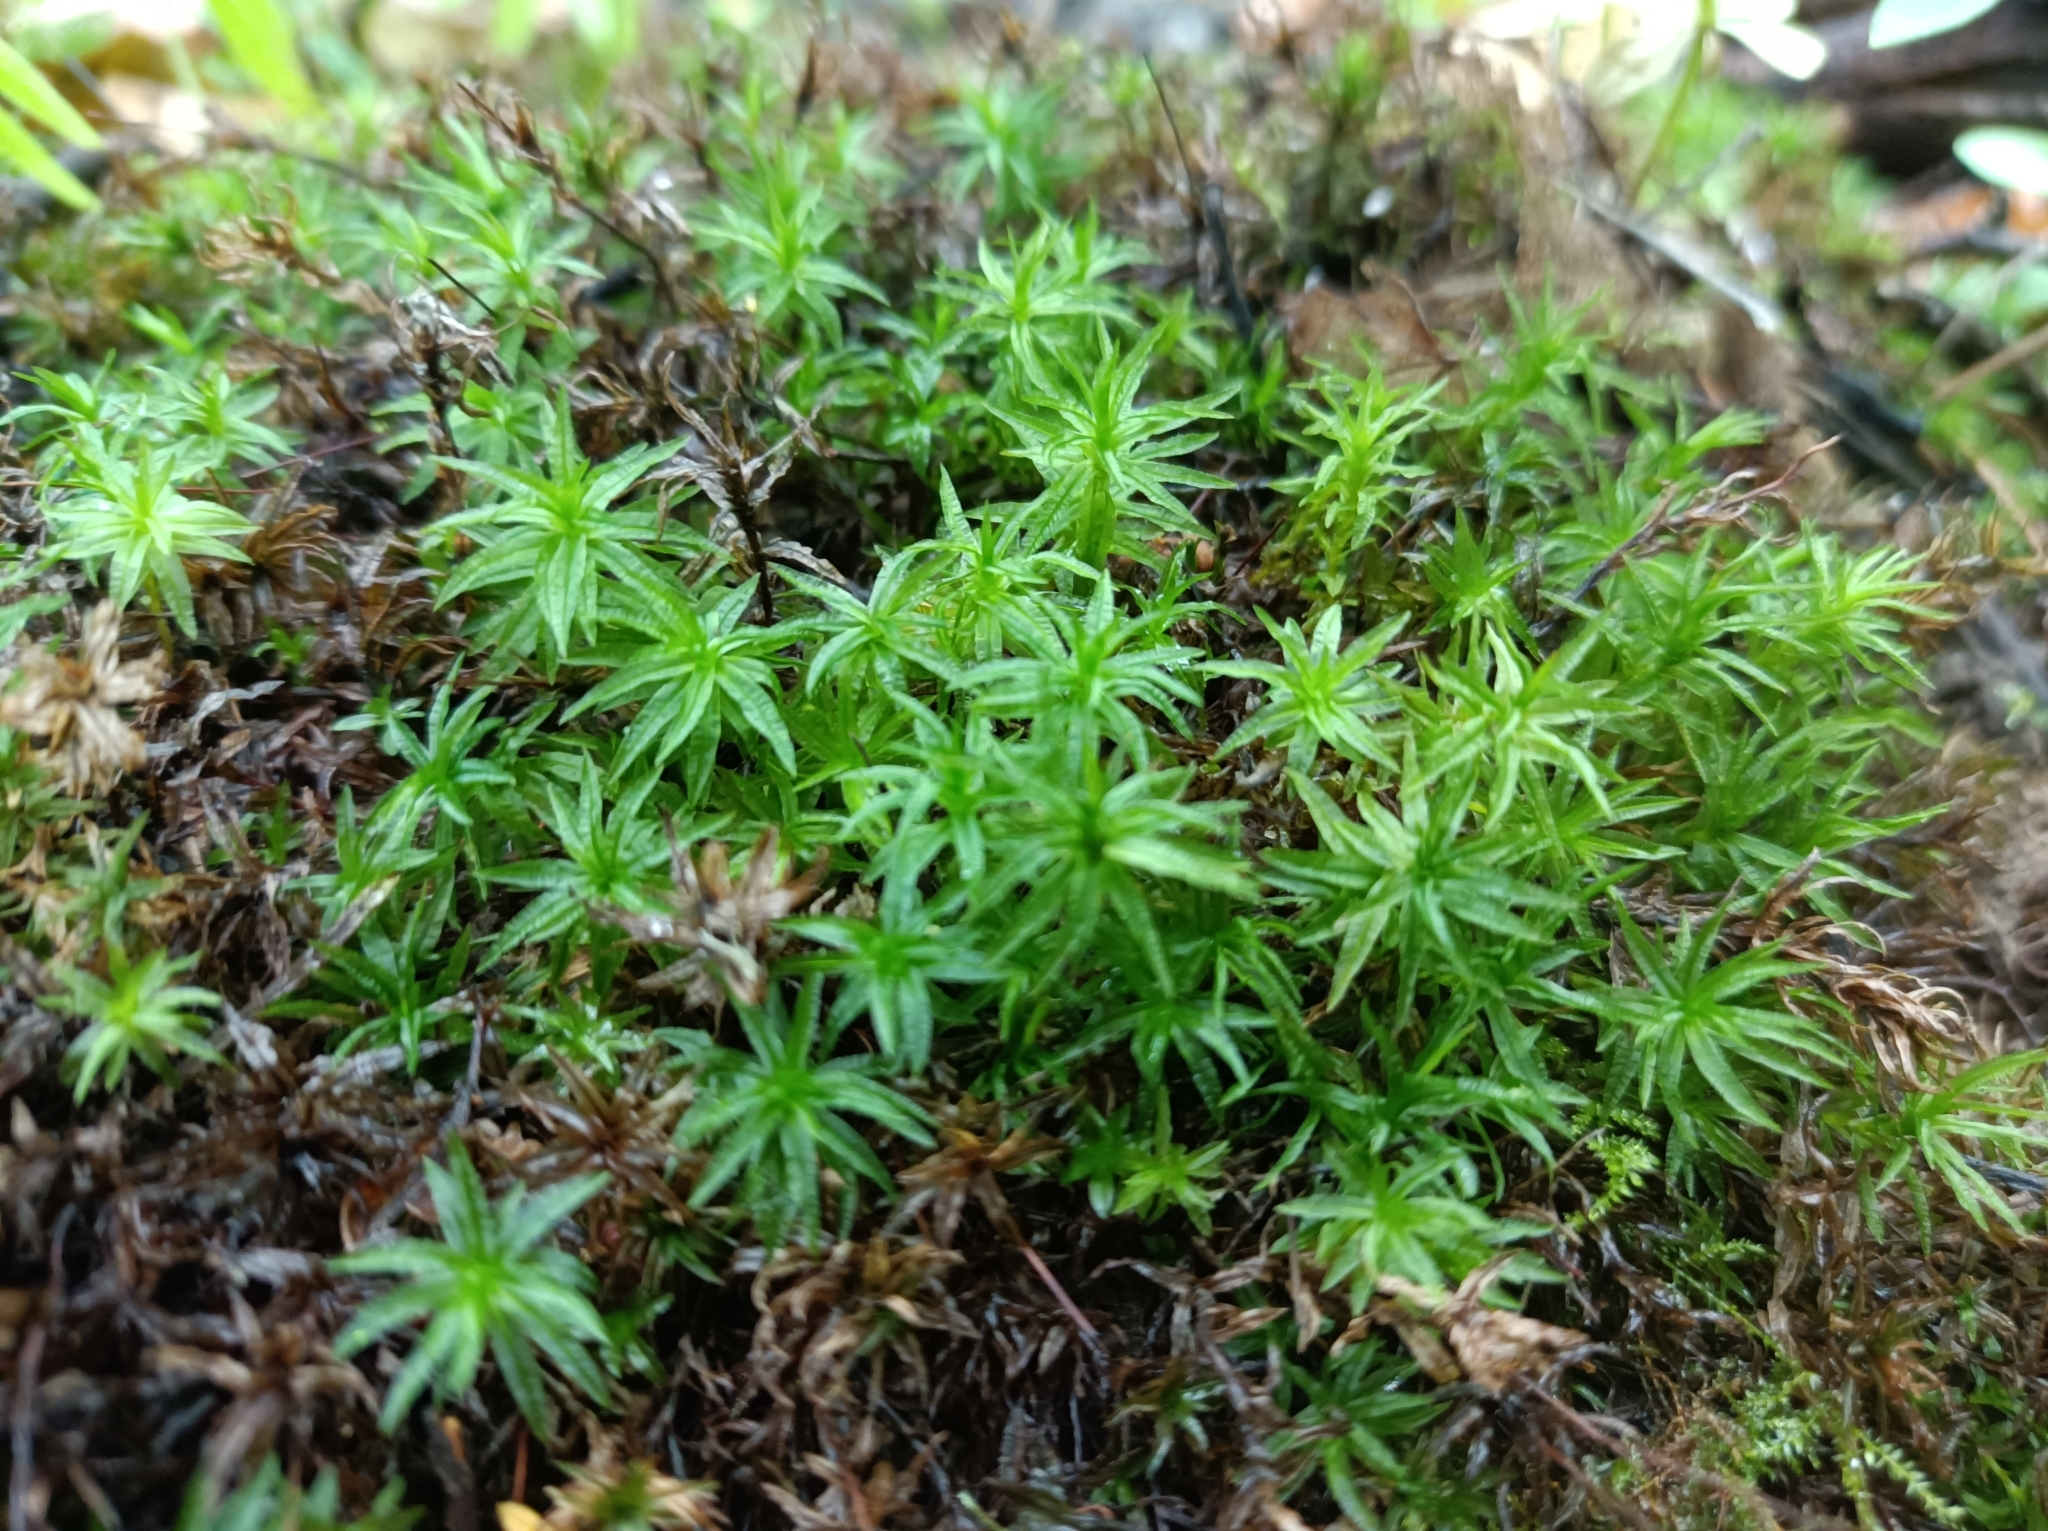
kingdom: Plantae
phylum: Bryophyta
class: Polytrichopsida
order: Polytrichales
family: Polytrichaceae
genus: Atrichum
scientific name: Atrichum undulatum
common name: Common smoothcap
